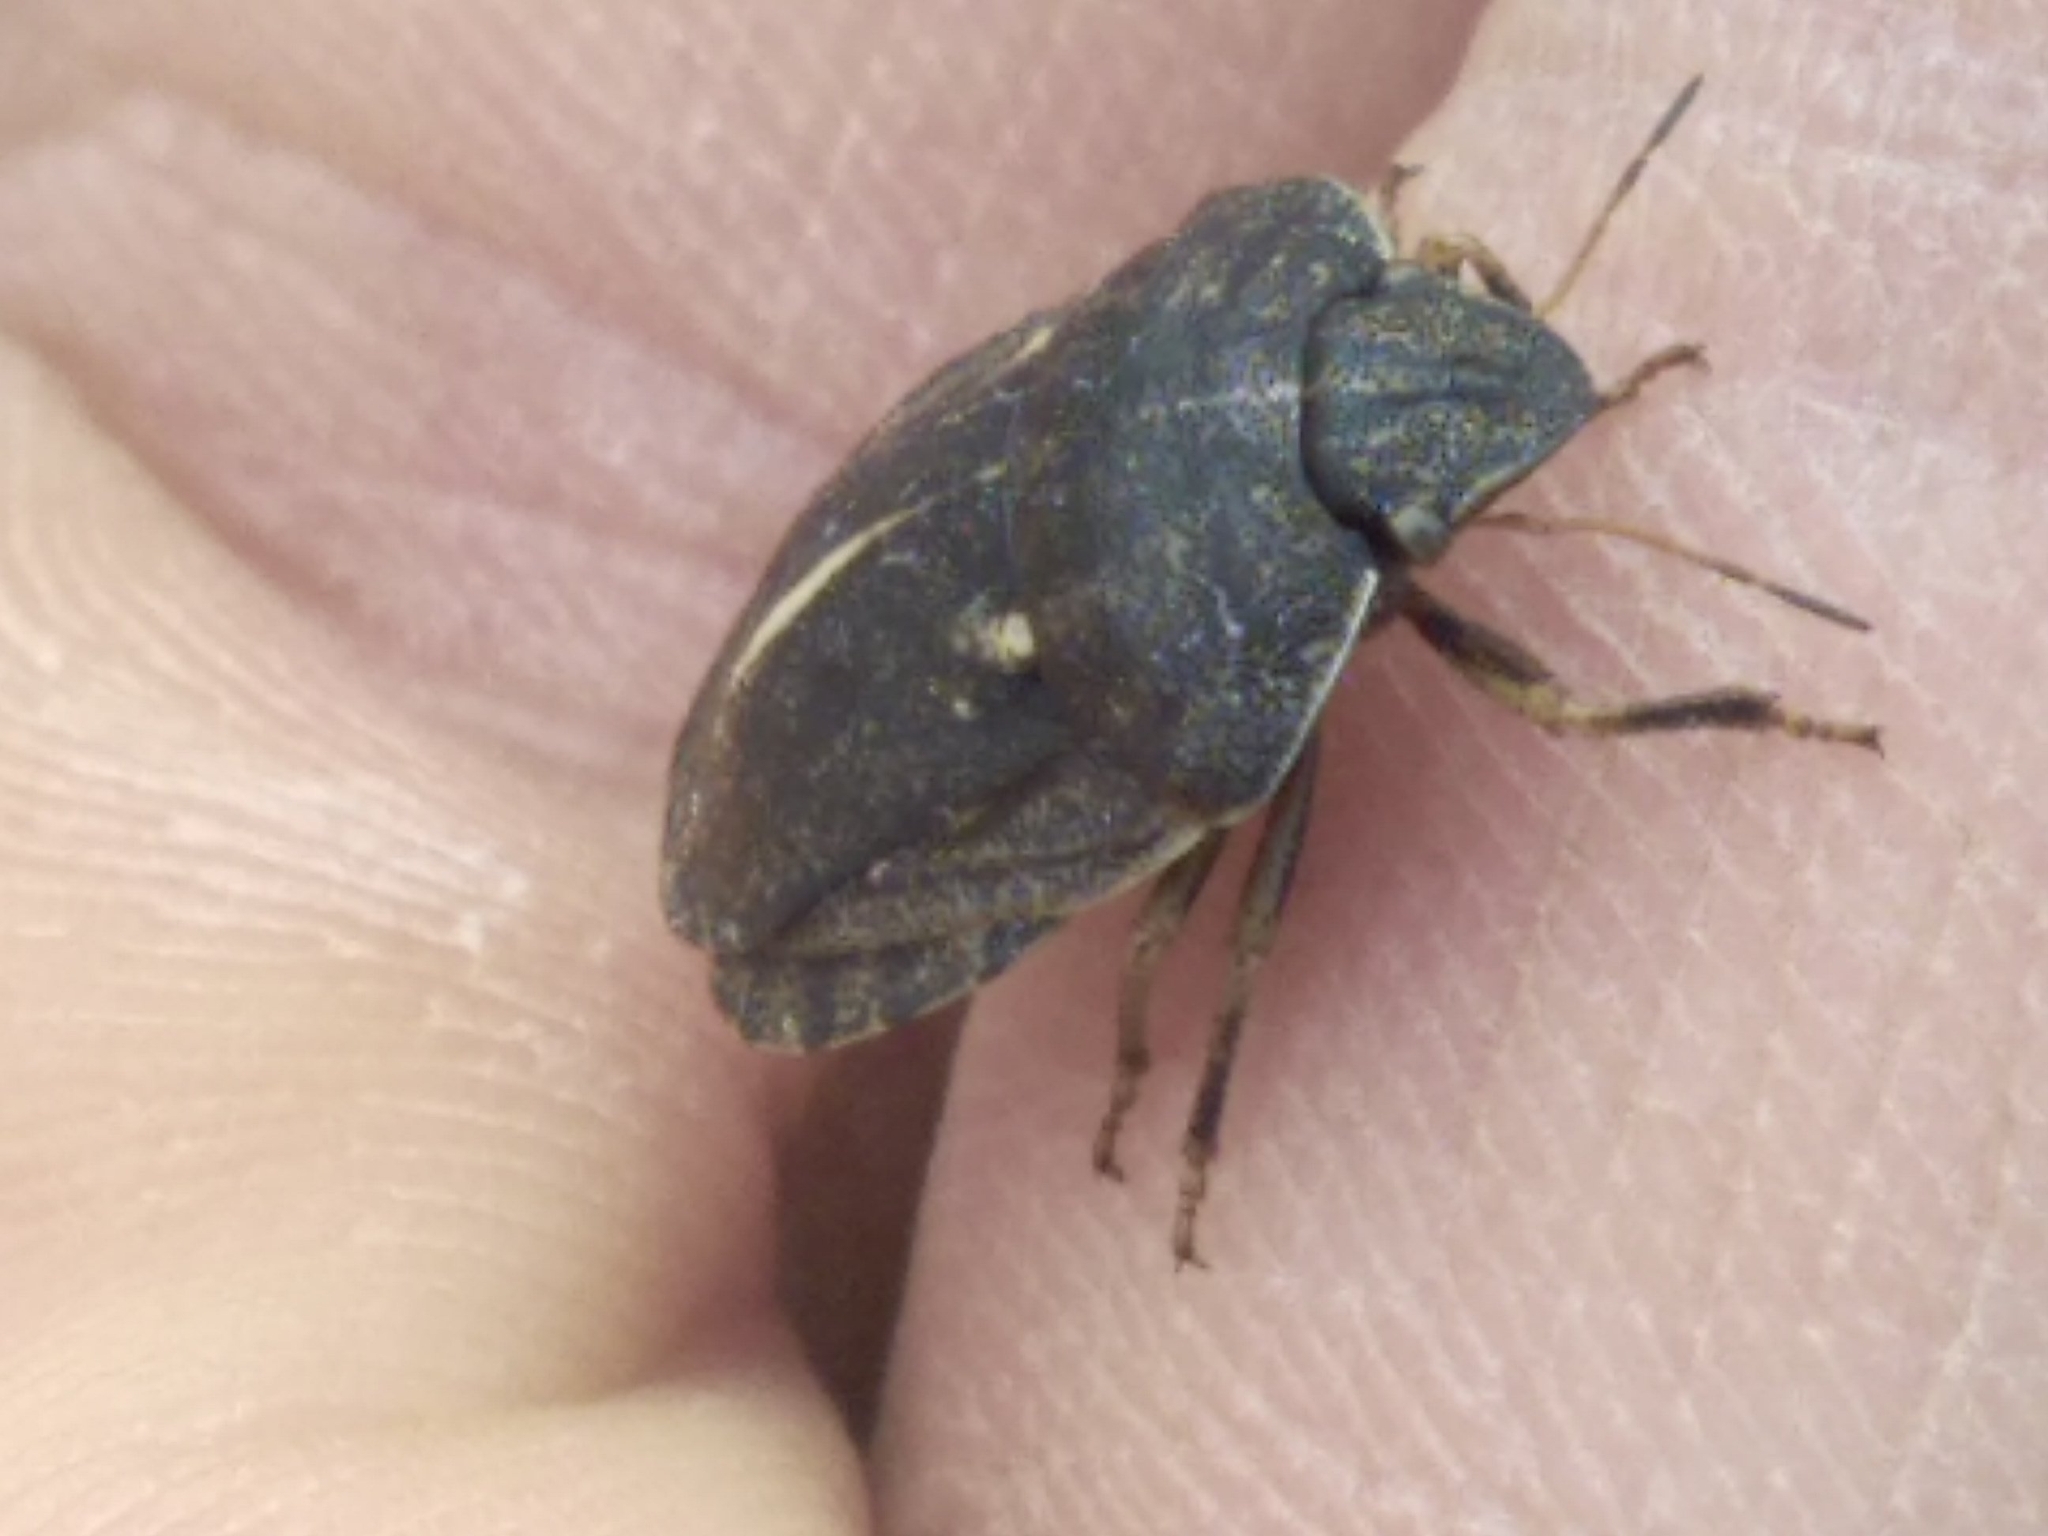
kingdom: Animalia
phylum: Arthropoda
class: Insecta
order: Hemiptera
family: Scutelleridae
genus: Eurygaster
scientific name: Eurygaster austriaca
